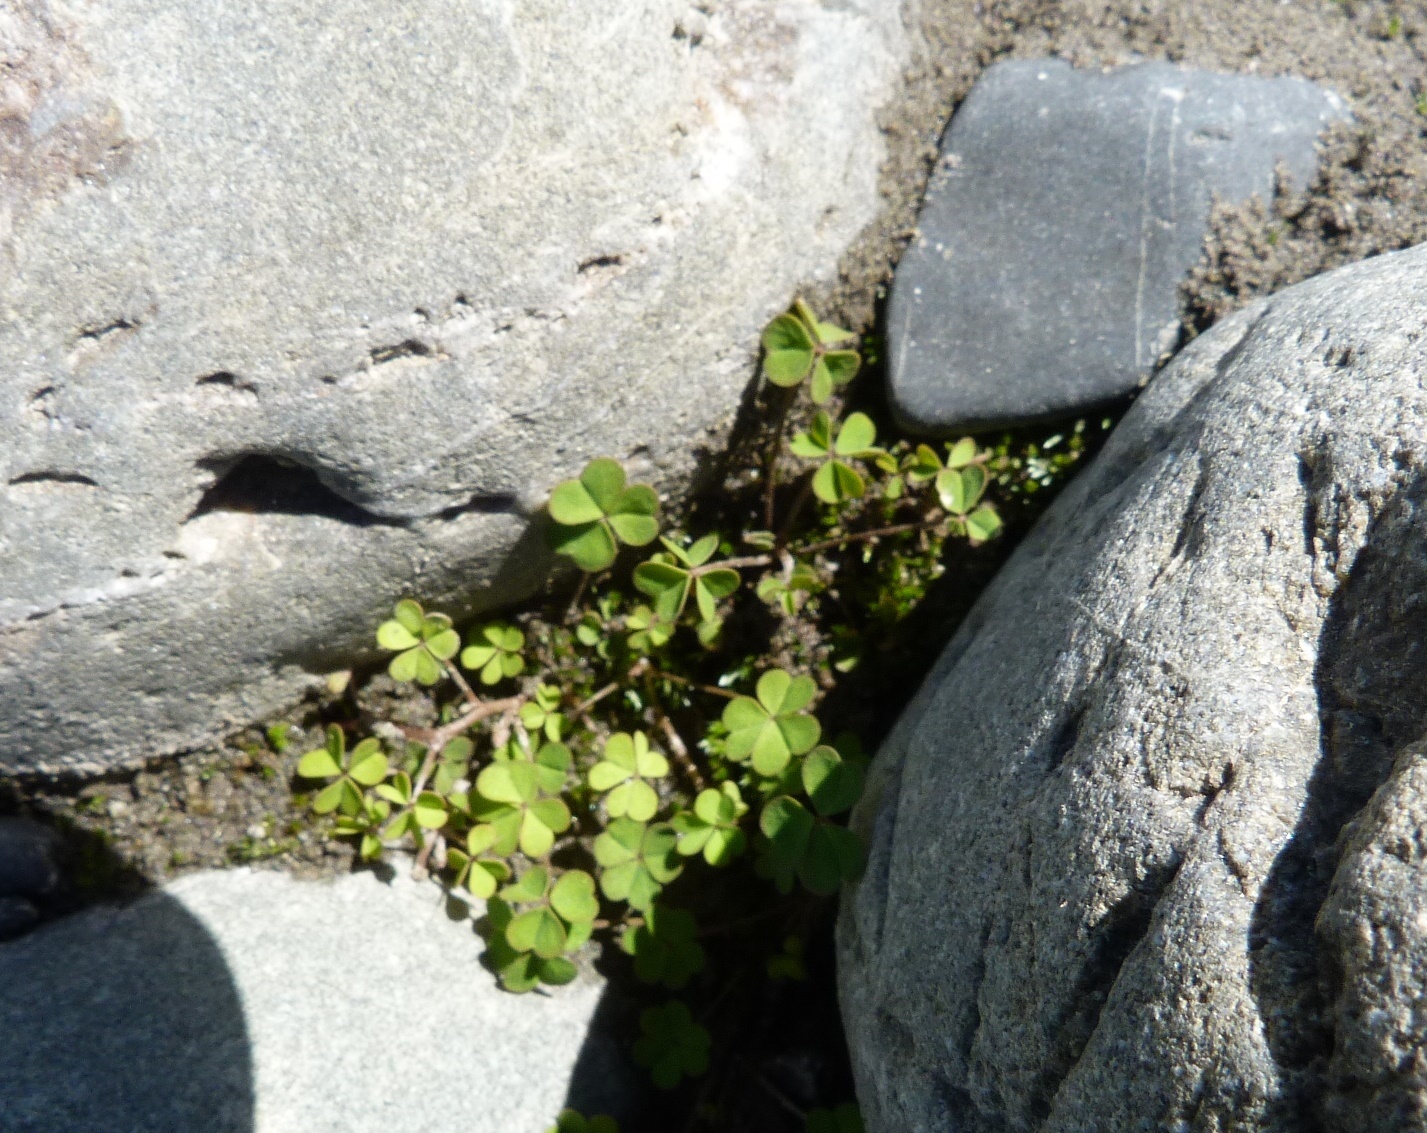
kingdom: Plantae
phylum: Tracheophyta
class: Magnoliopsida
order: Oxalidales
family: Oxalidaceae
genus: Oxalis
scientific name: Oxalis exilis
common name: Least yellow-sorrel
